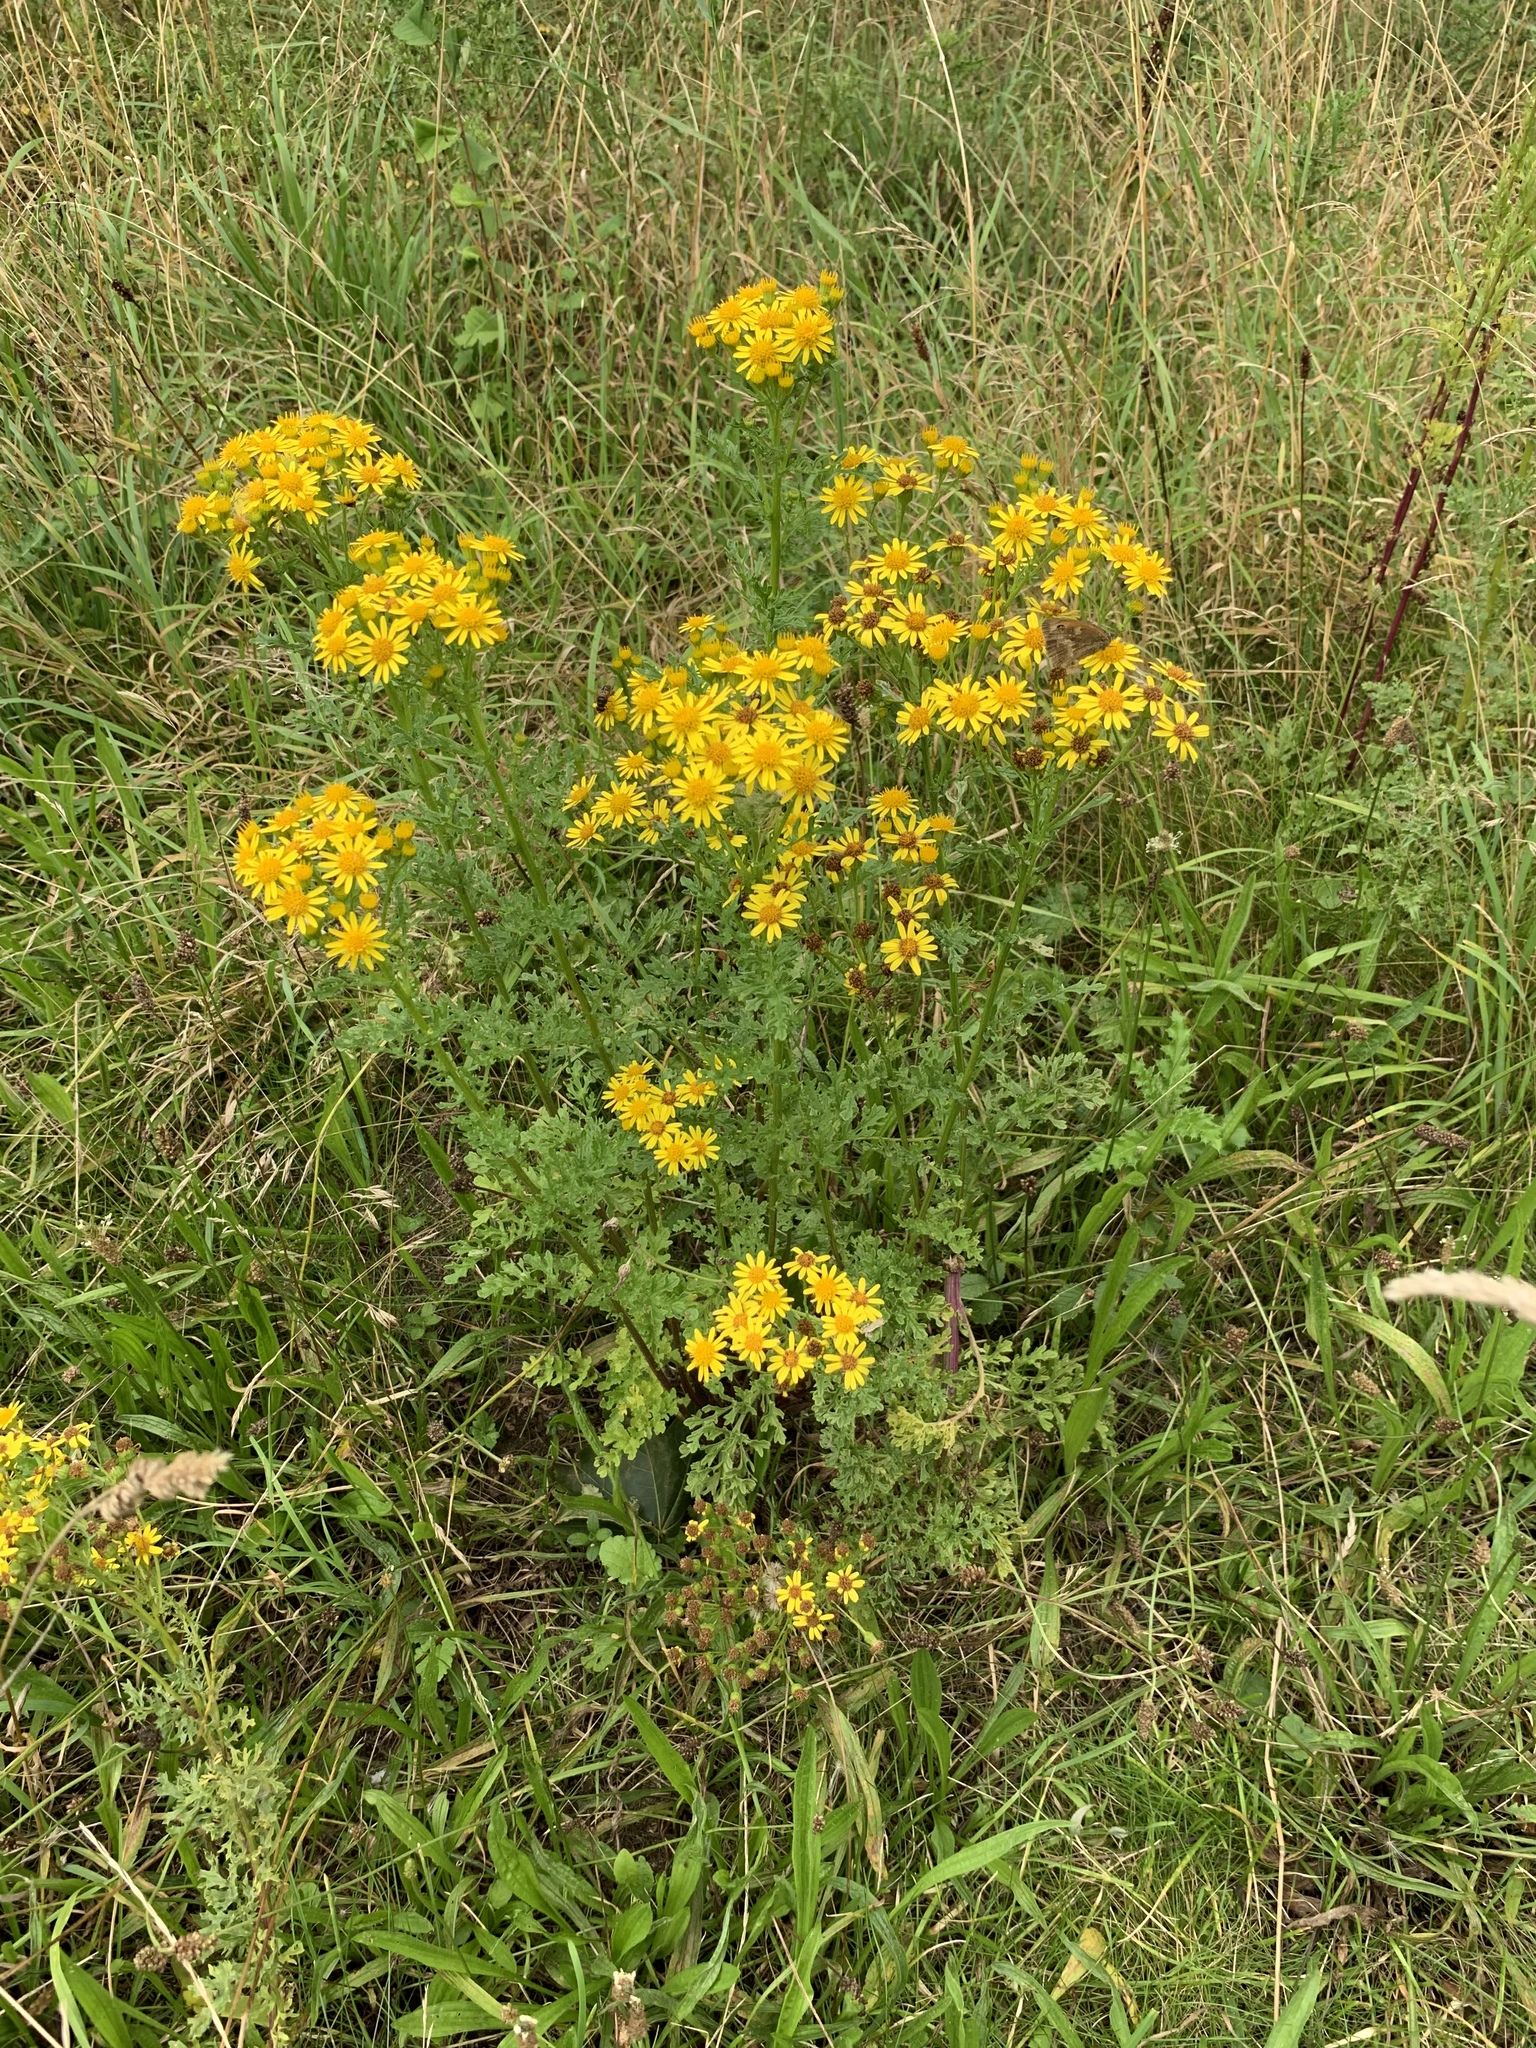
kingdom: Plantae
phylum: Tracheophyta
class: Magnoliopsida
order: Asterales
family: Asteraceae
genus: Jacobaea
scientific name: Jacobaea vulgaris
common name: Stinking willie
